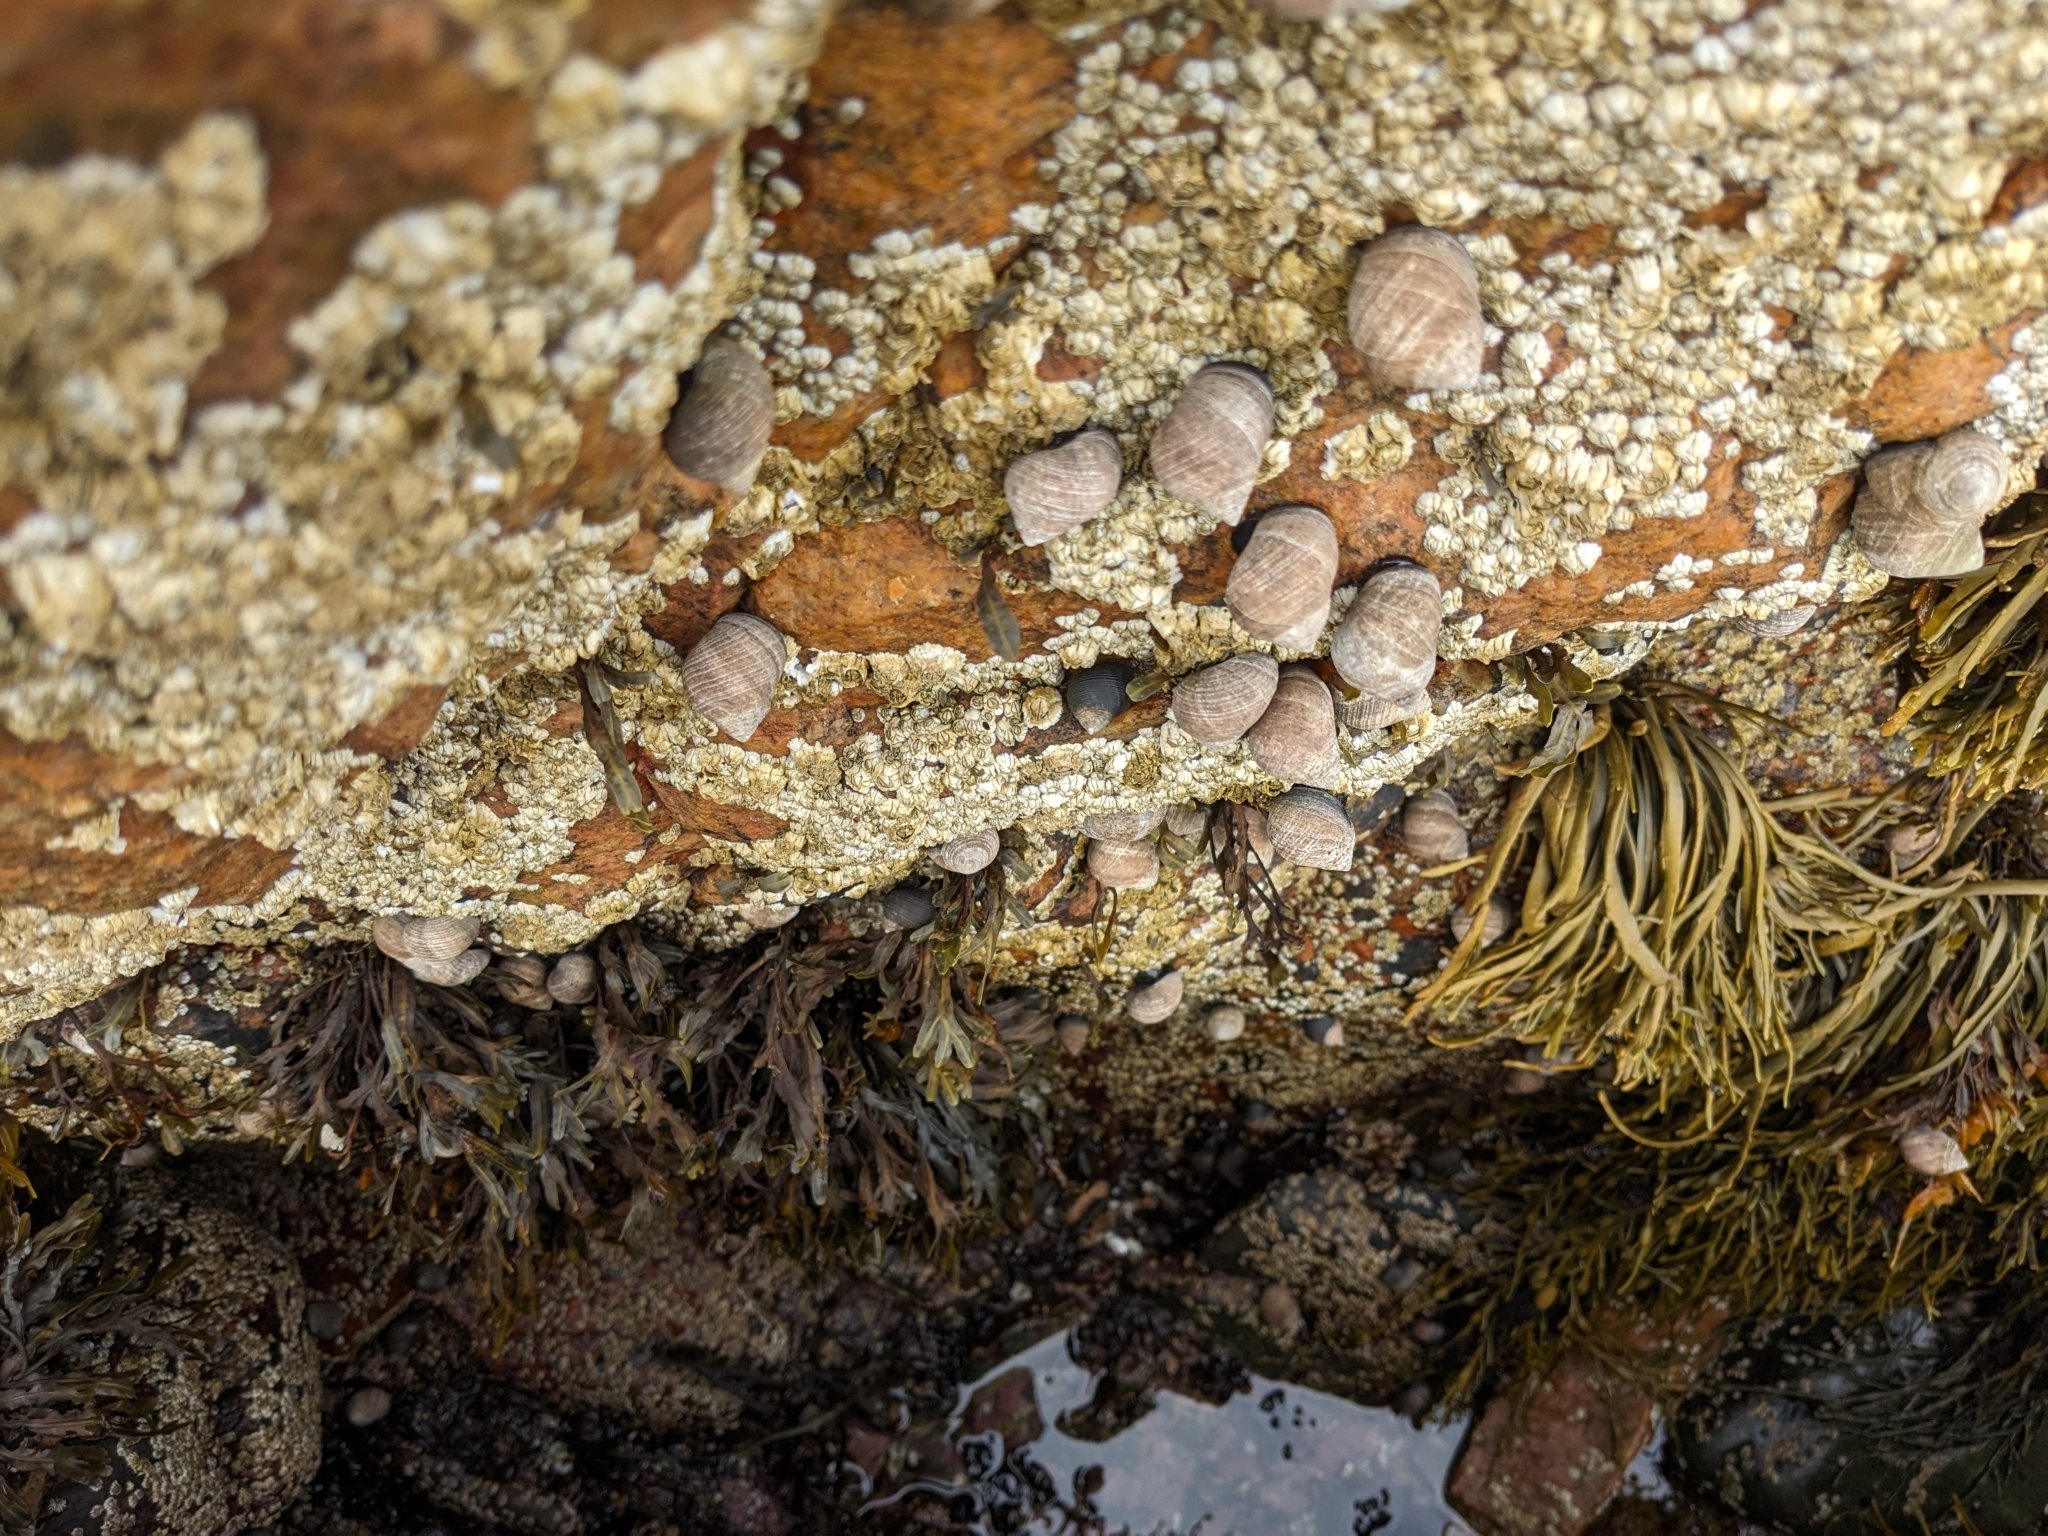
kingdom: Animalia
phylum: Mollusca
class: Gastropoda
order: Littorinimorpha
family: Littorinidae
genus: Littorina
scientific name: Littorina littorea
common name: Common periwinkle
